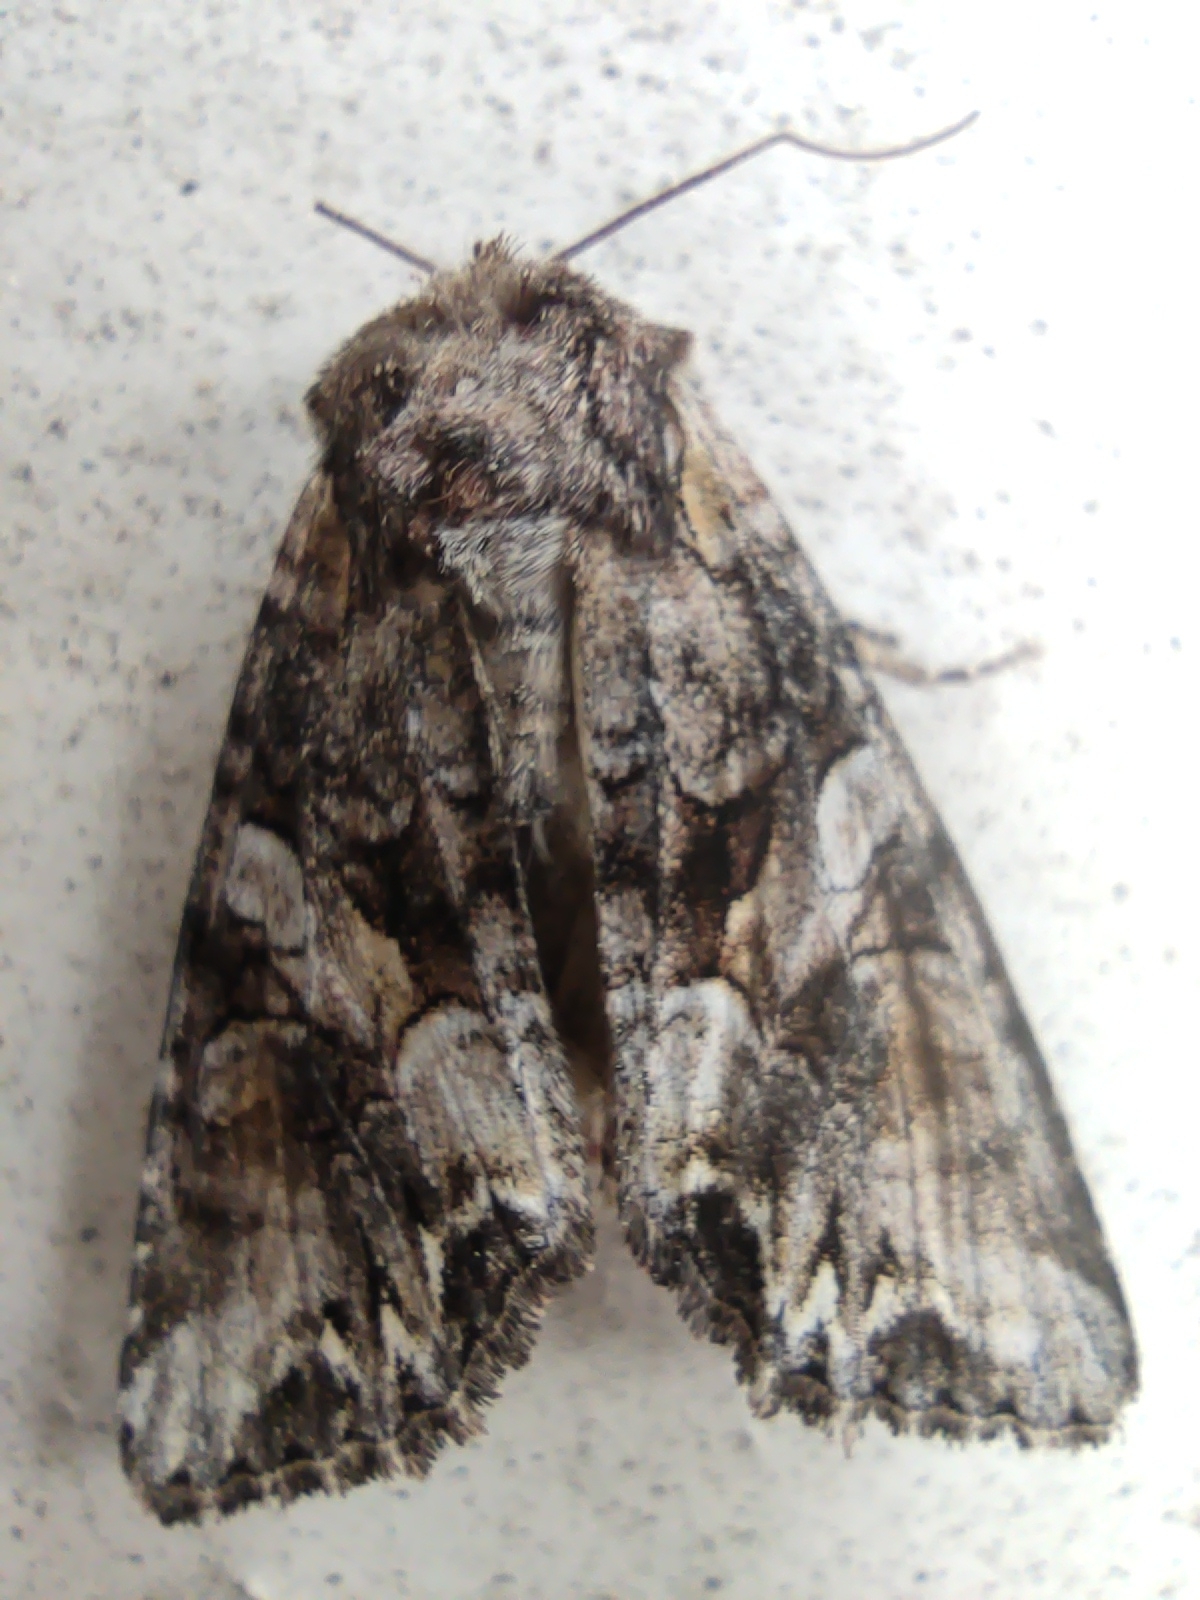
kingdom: Animalia
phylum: Arthropoda
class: Insecta
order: Lepidoptera
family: Noctuidae
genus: Lacanobia
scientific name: Lacanobia contigua
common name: Beautiful brocade
